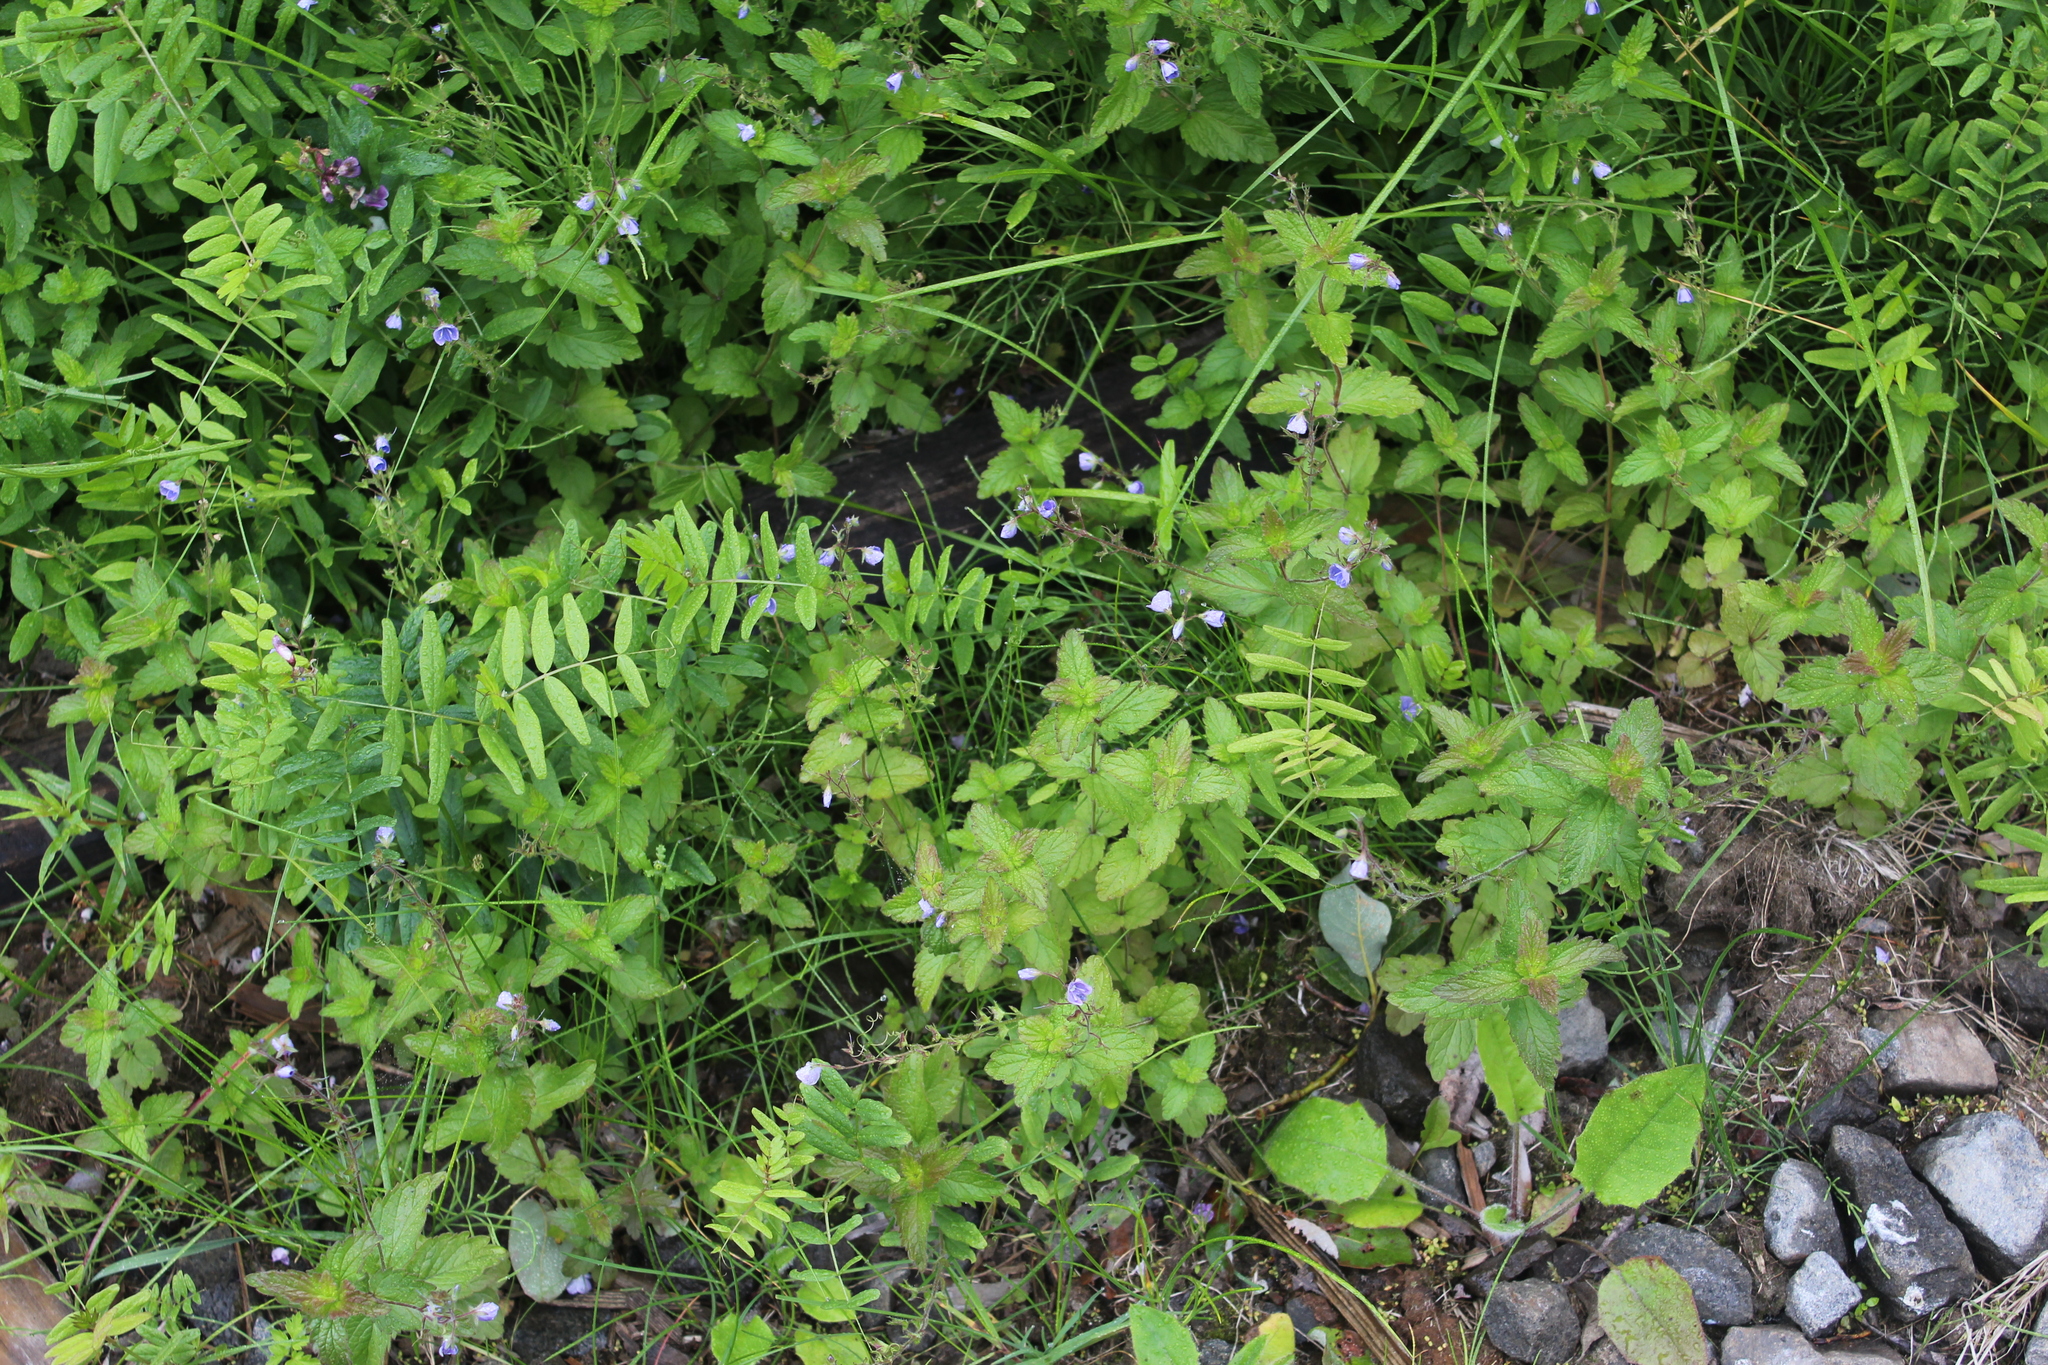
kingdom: Plantae
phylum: Tracheophyta
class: Magnoliopsida
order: Lamiales
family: Plantaginaceae
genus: Veronica
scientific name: Veronica chamaedrys
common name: Germander speedwell
